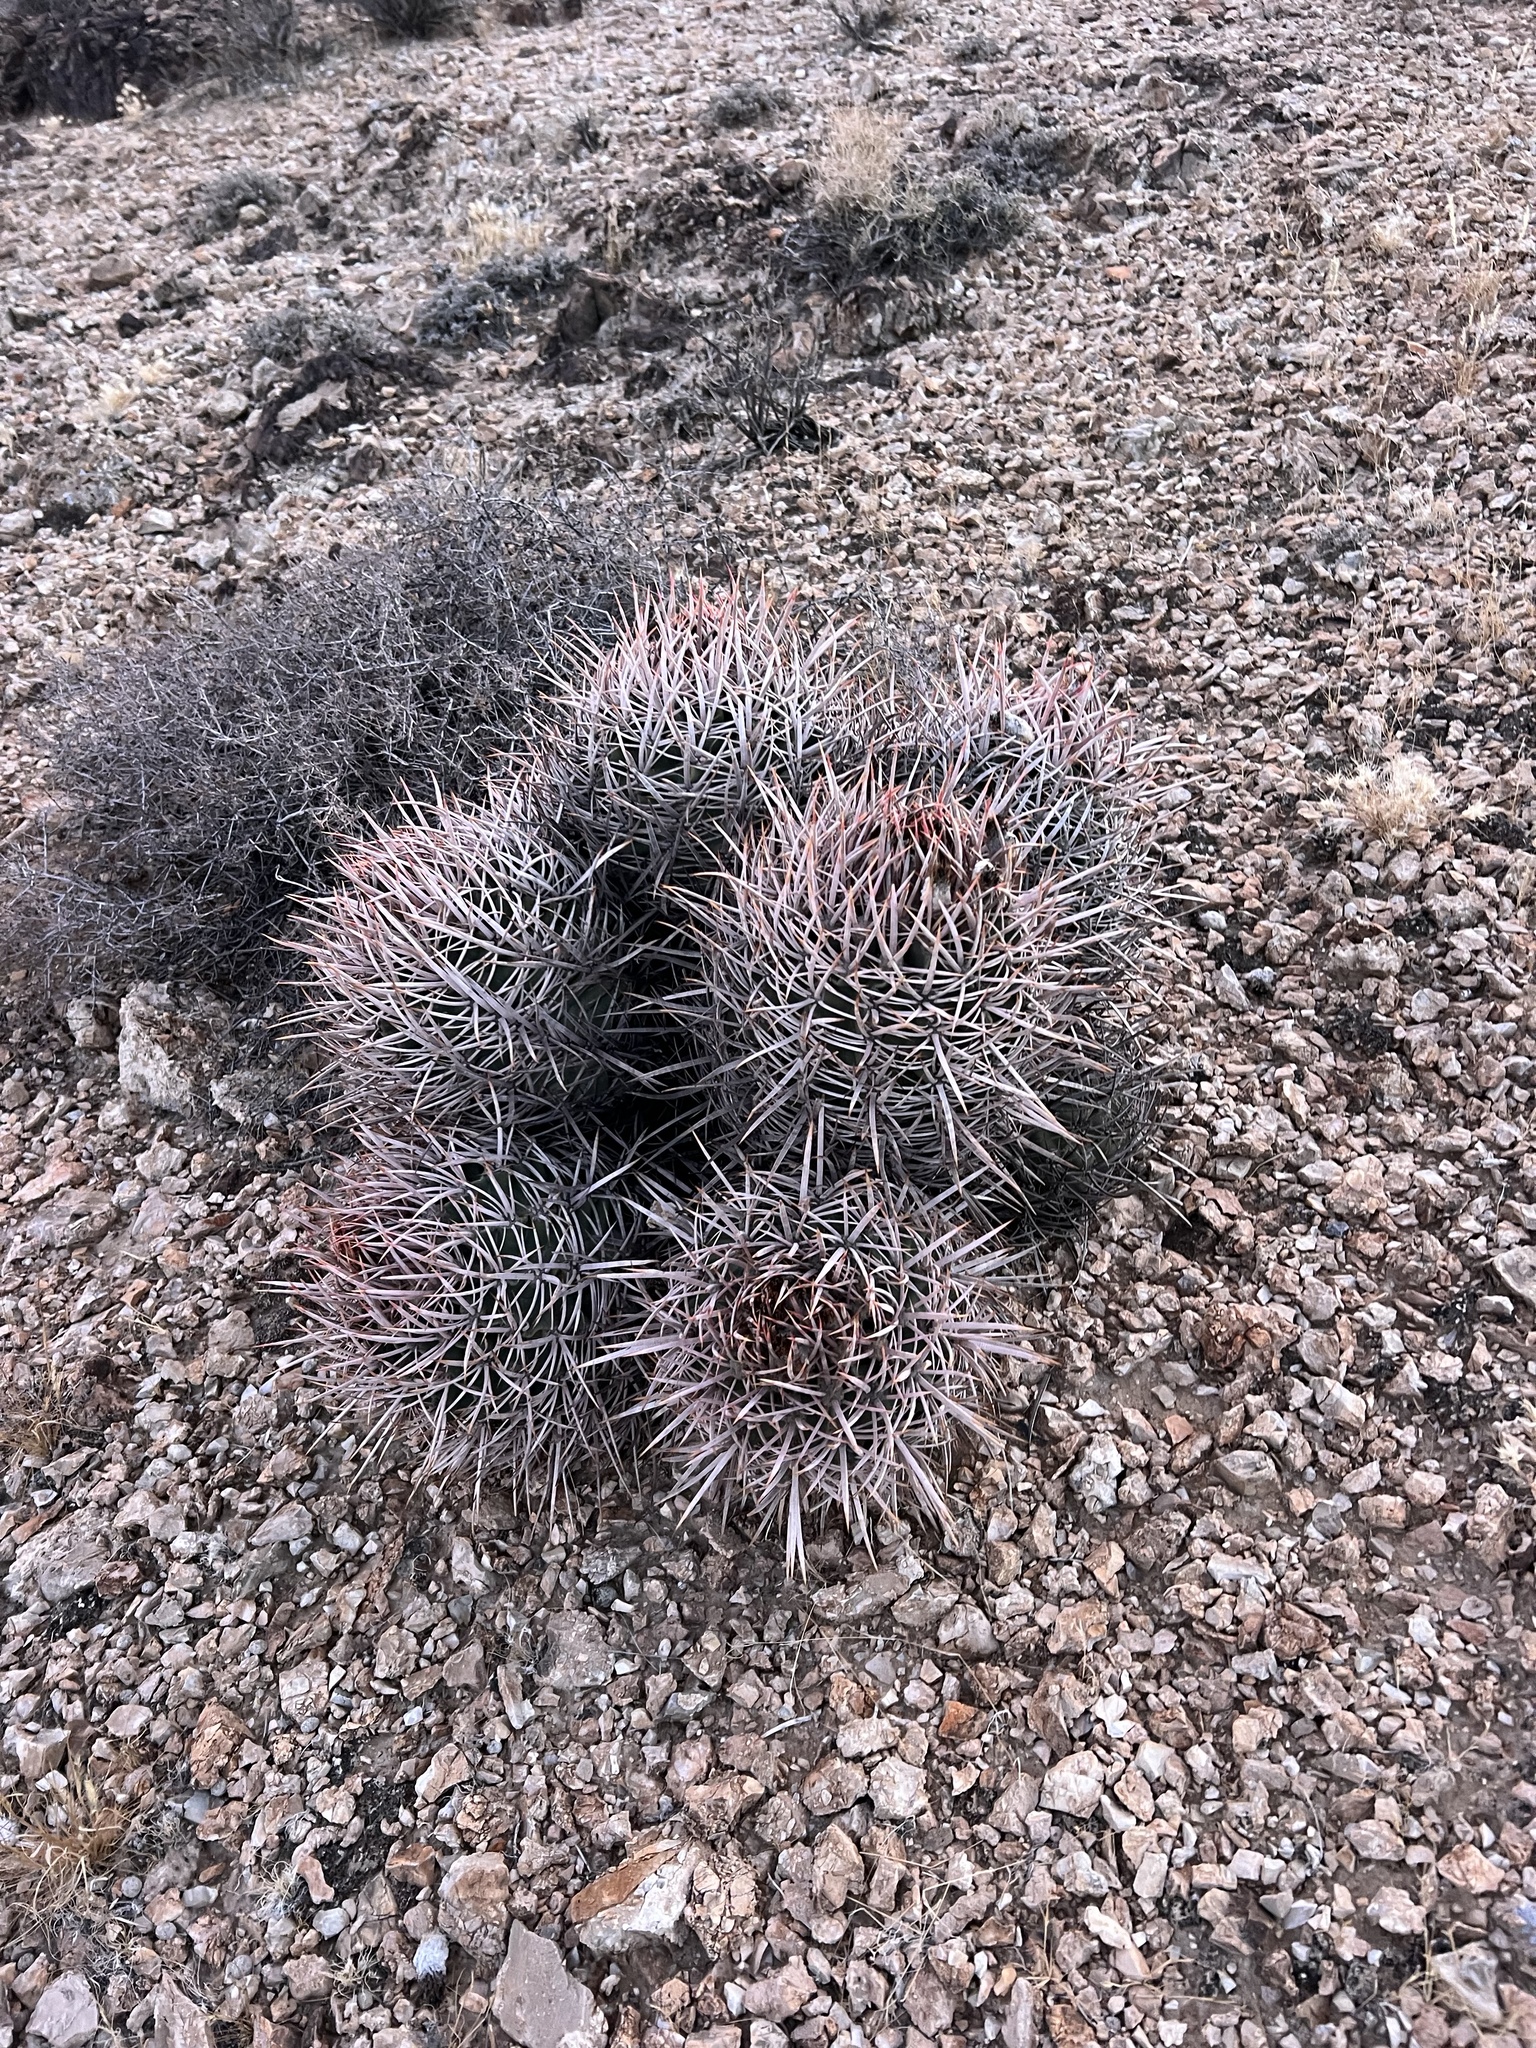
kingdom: Plantae
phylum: Tracheophyta
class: Magnoliopsida
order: Caryophyllales
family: Cactaceae
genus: Echinocactus
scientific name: Echinocactus polycephalus
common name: Cottontop cactus
